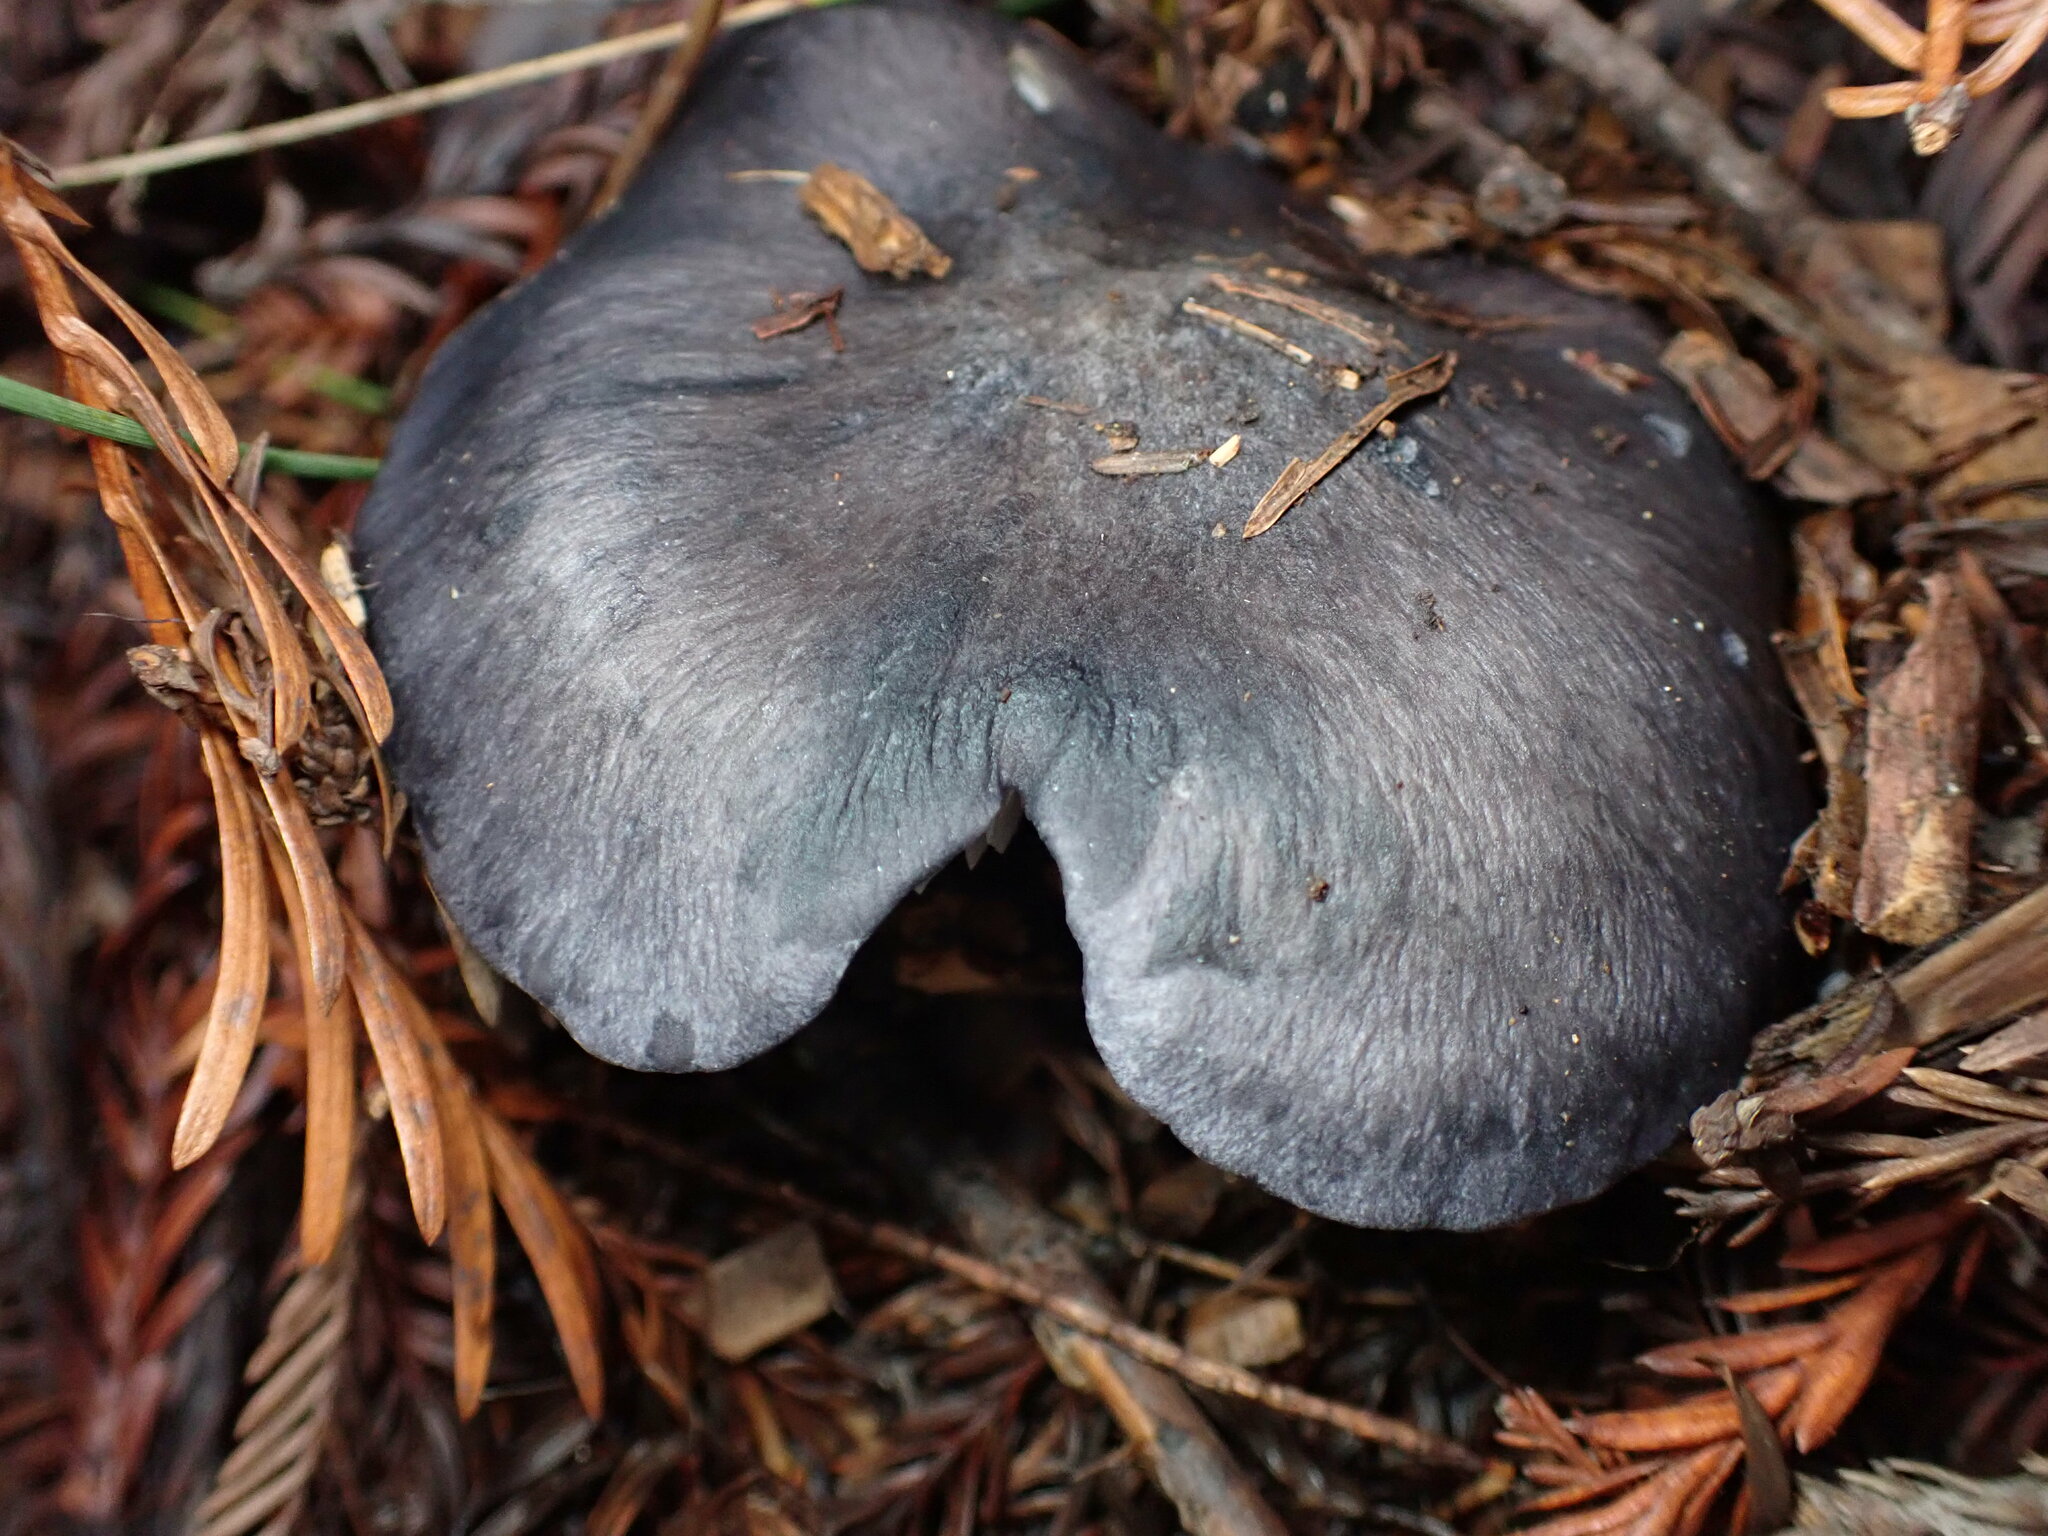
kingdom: Fungi
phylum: Basidiomycota
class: Agaricomycetes
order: Agaricales
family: Entolomataceae
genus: Entoloma
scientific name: Entoloma medianox
